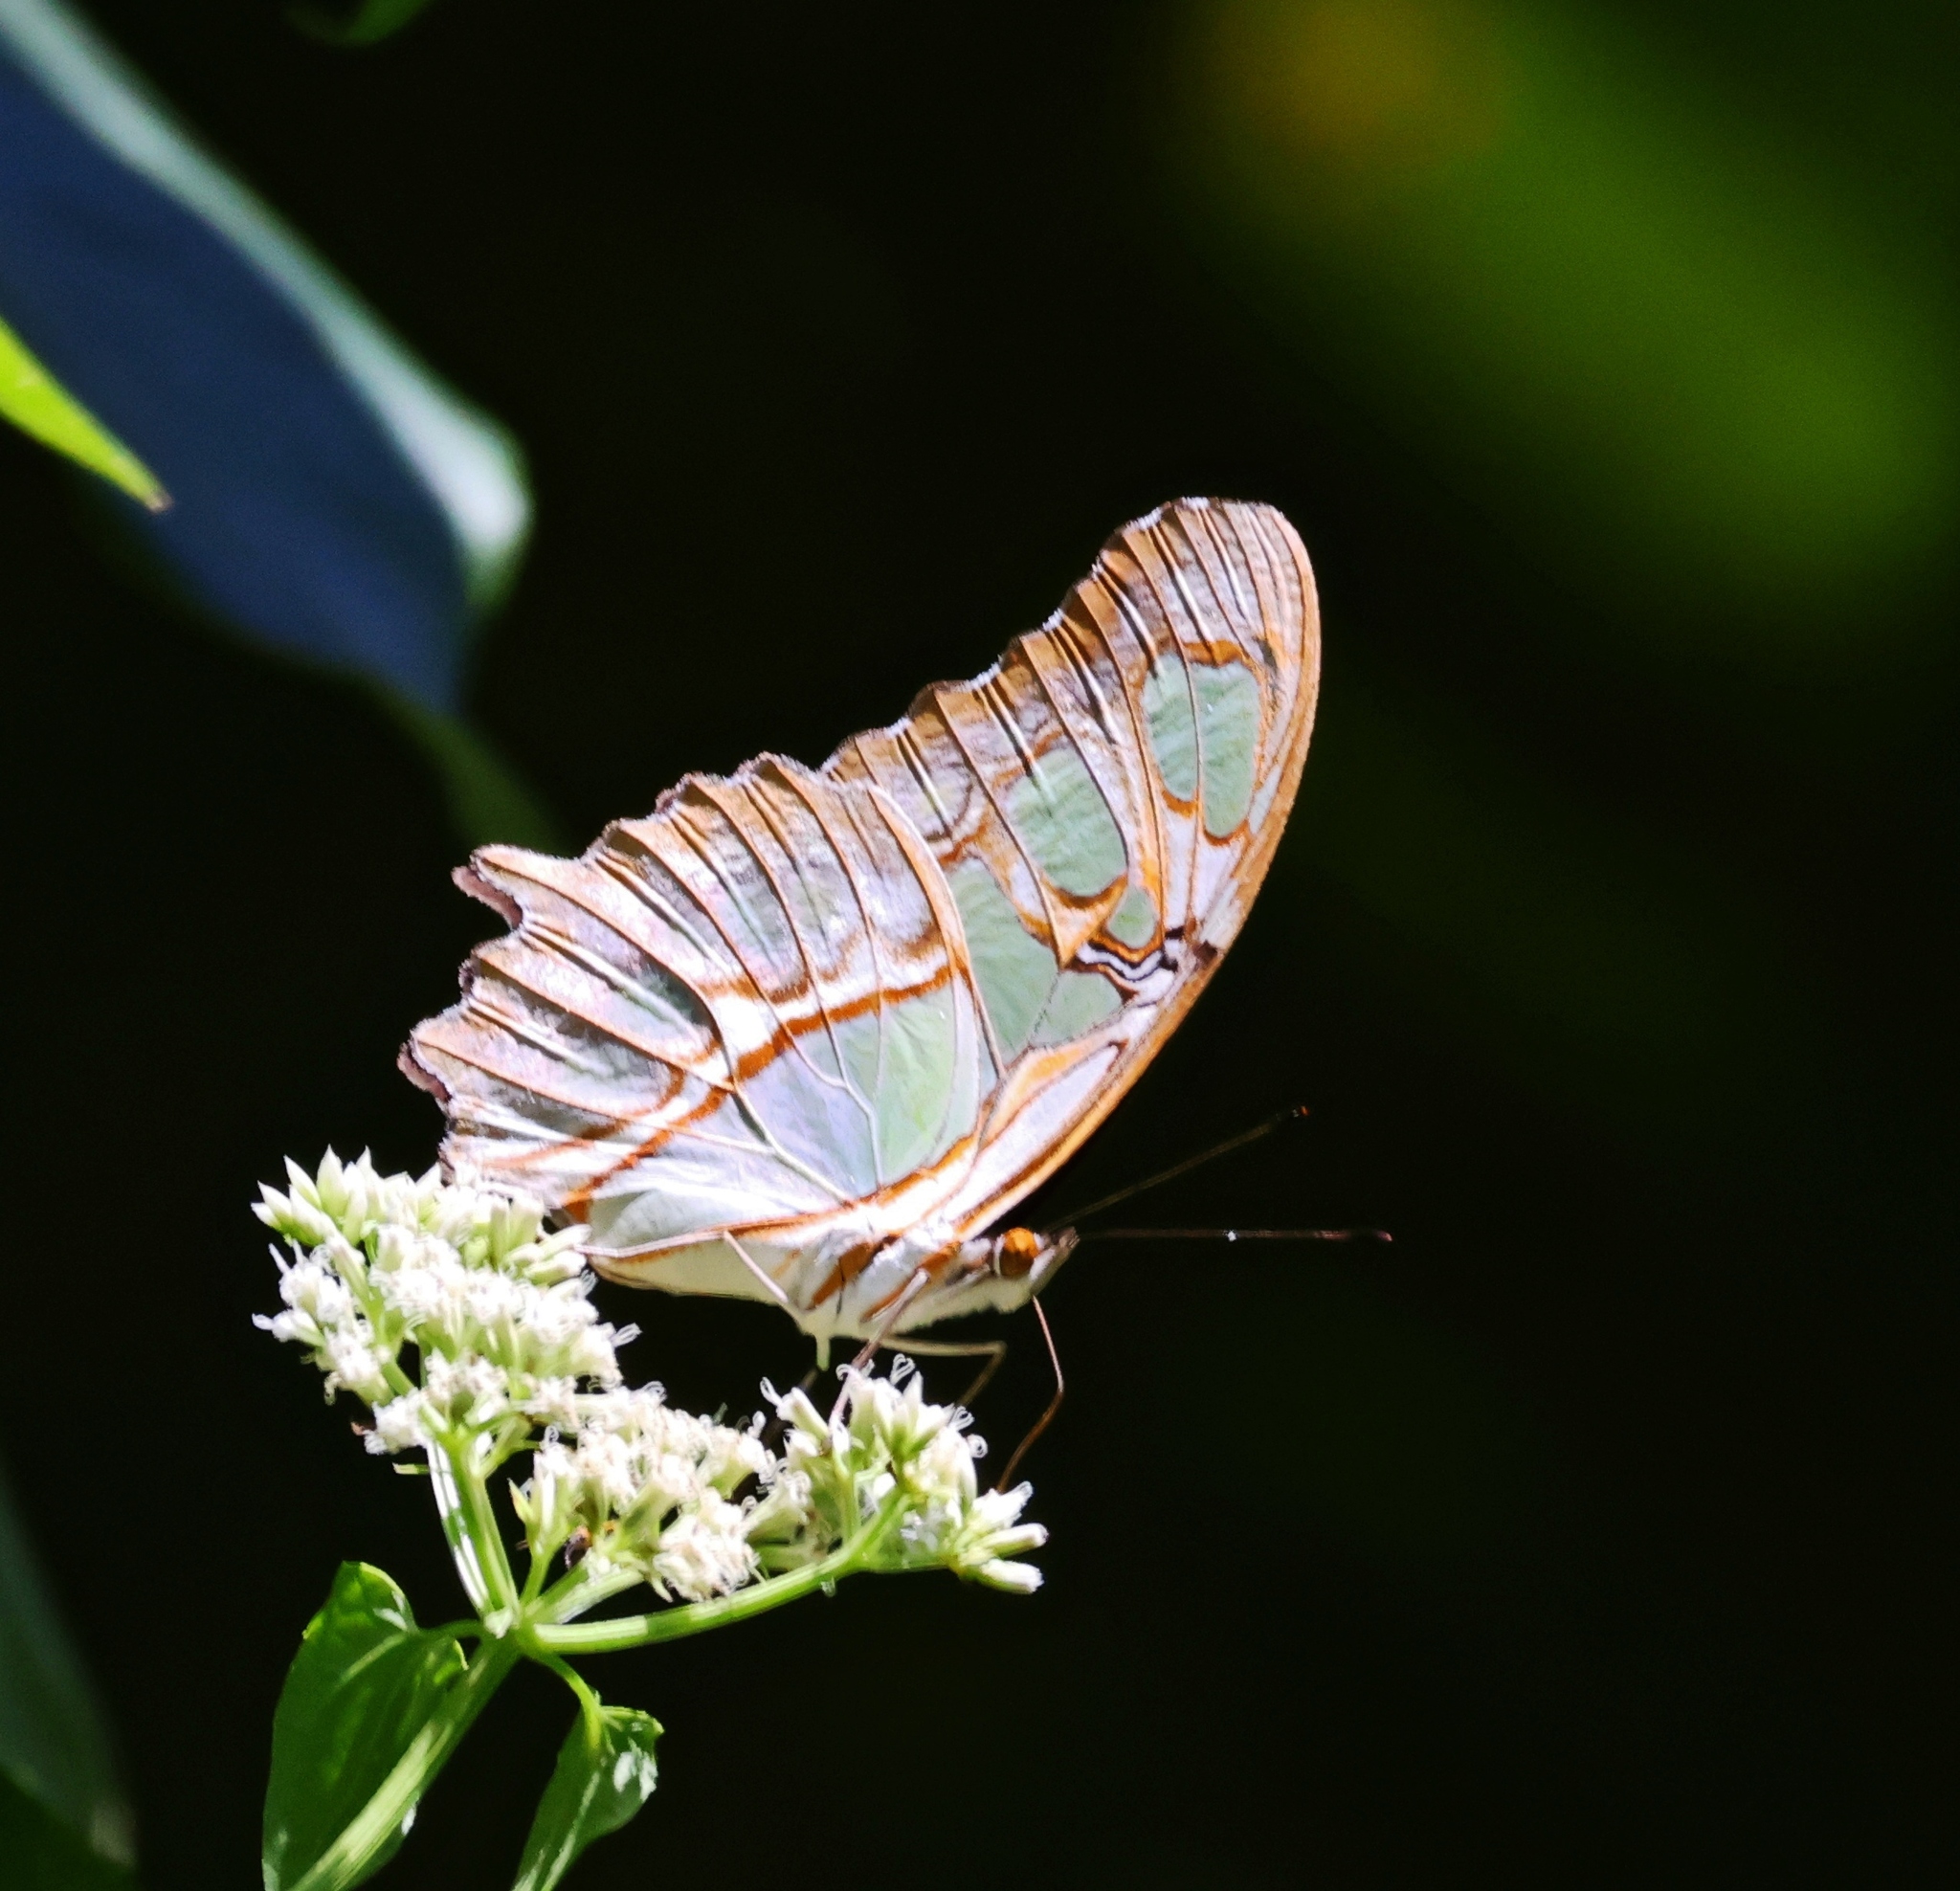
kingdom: Animalia
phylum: Arthropoda
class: Insecta
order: Lepidoptera
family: Nymphalidae
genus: Siproeta
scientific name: Siproeta stelenes
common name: Malachite
